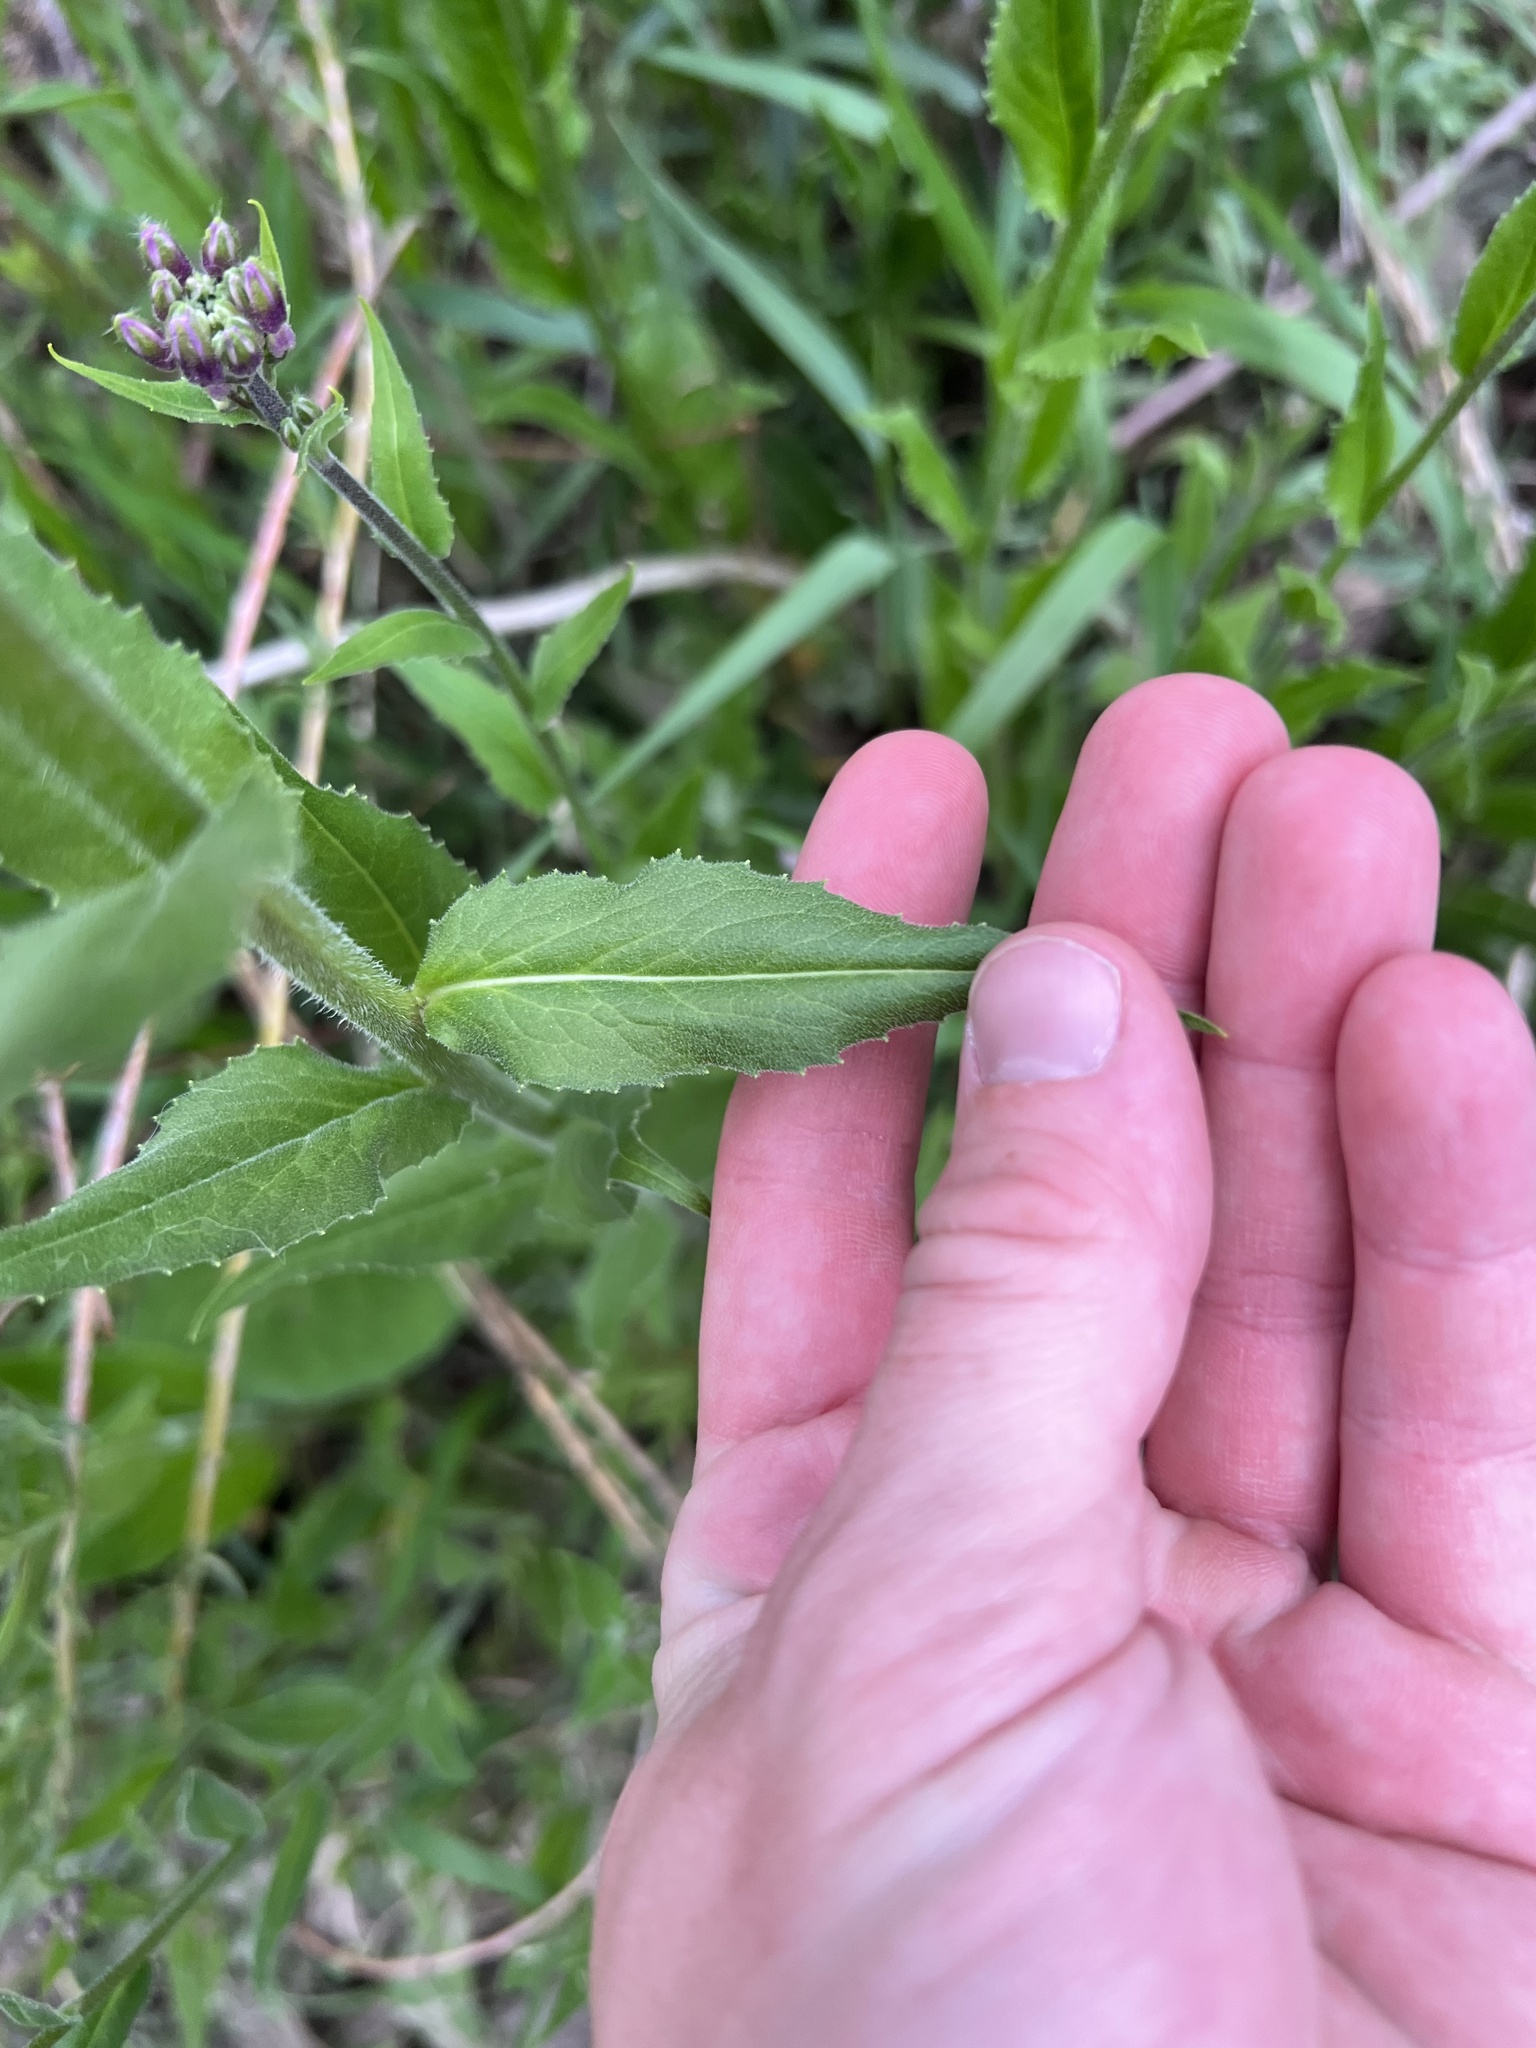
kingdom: Plantae
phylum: Tracheophyta
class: Magnoliopsida
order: Brassicales
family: Brassicaceae
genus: Hesperis
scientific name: Hesperis matronalis
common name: Dame's-violet
